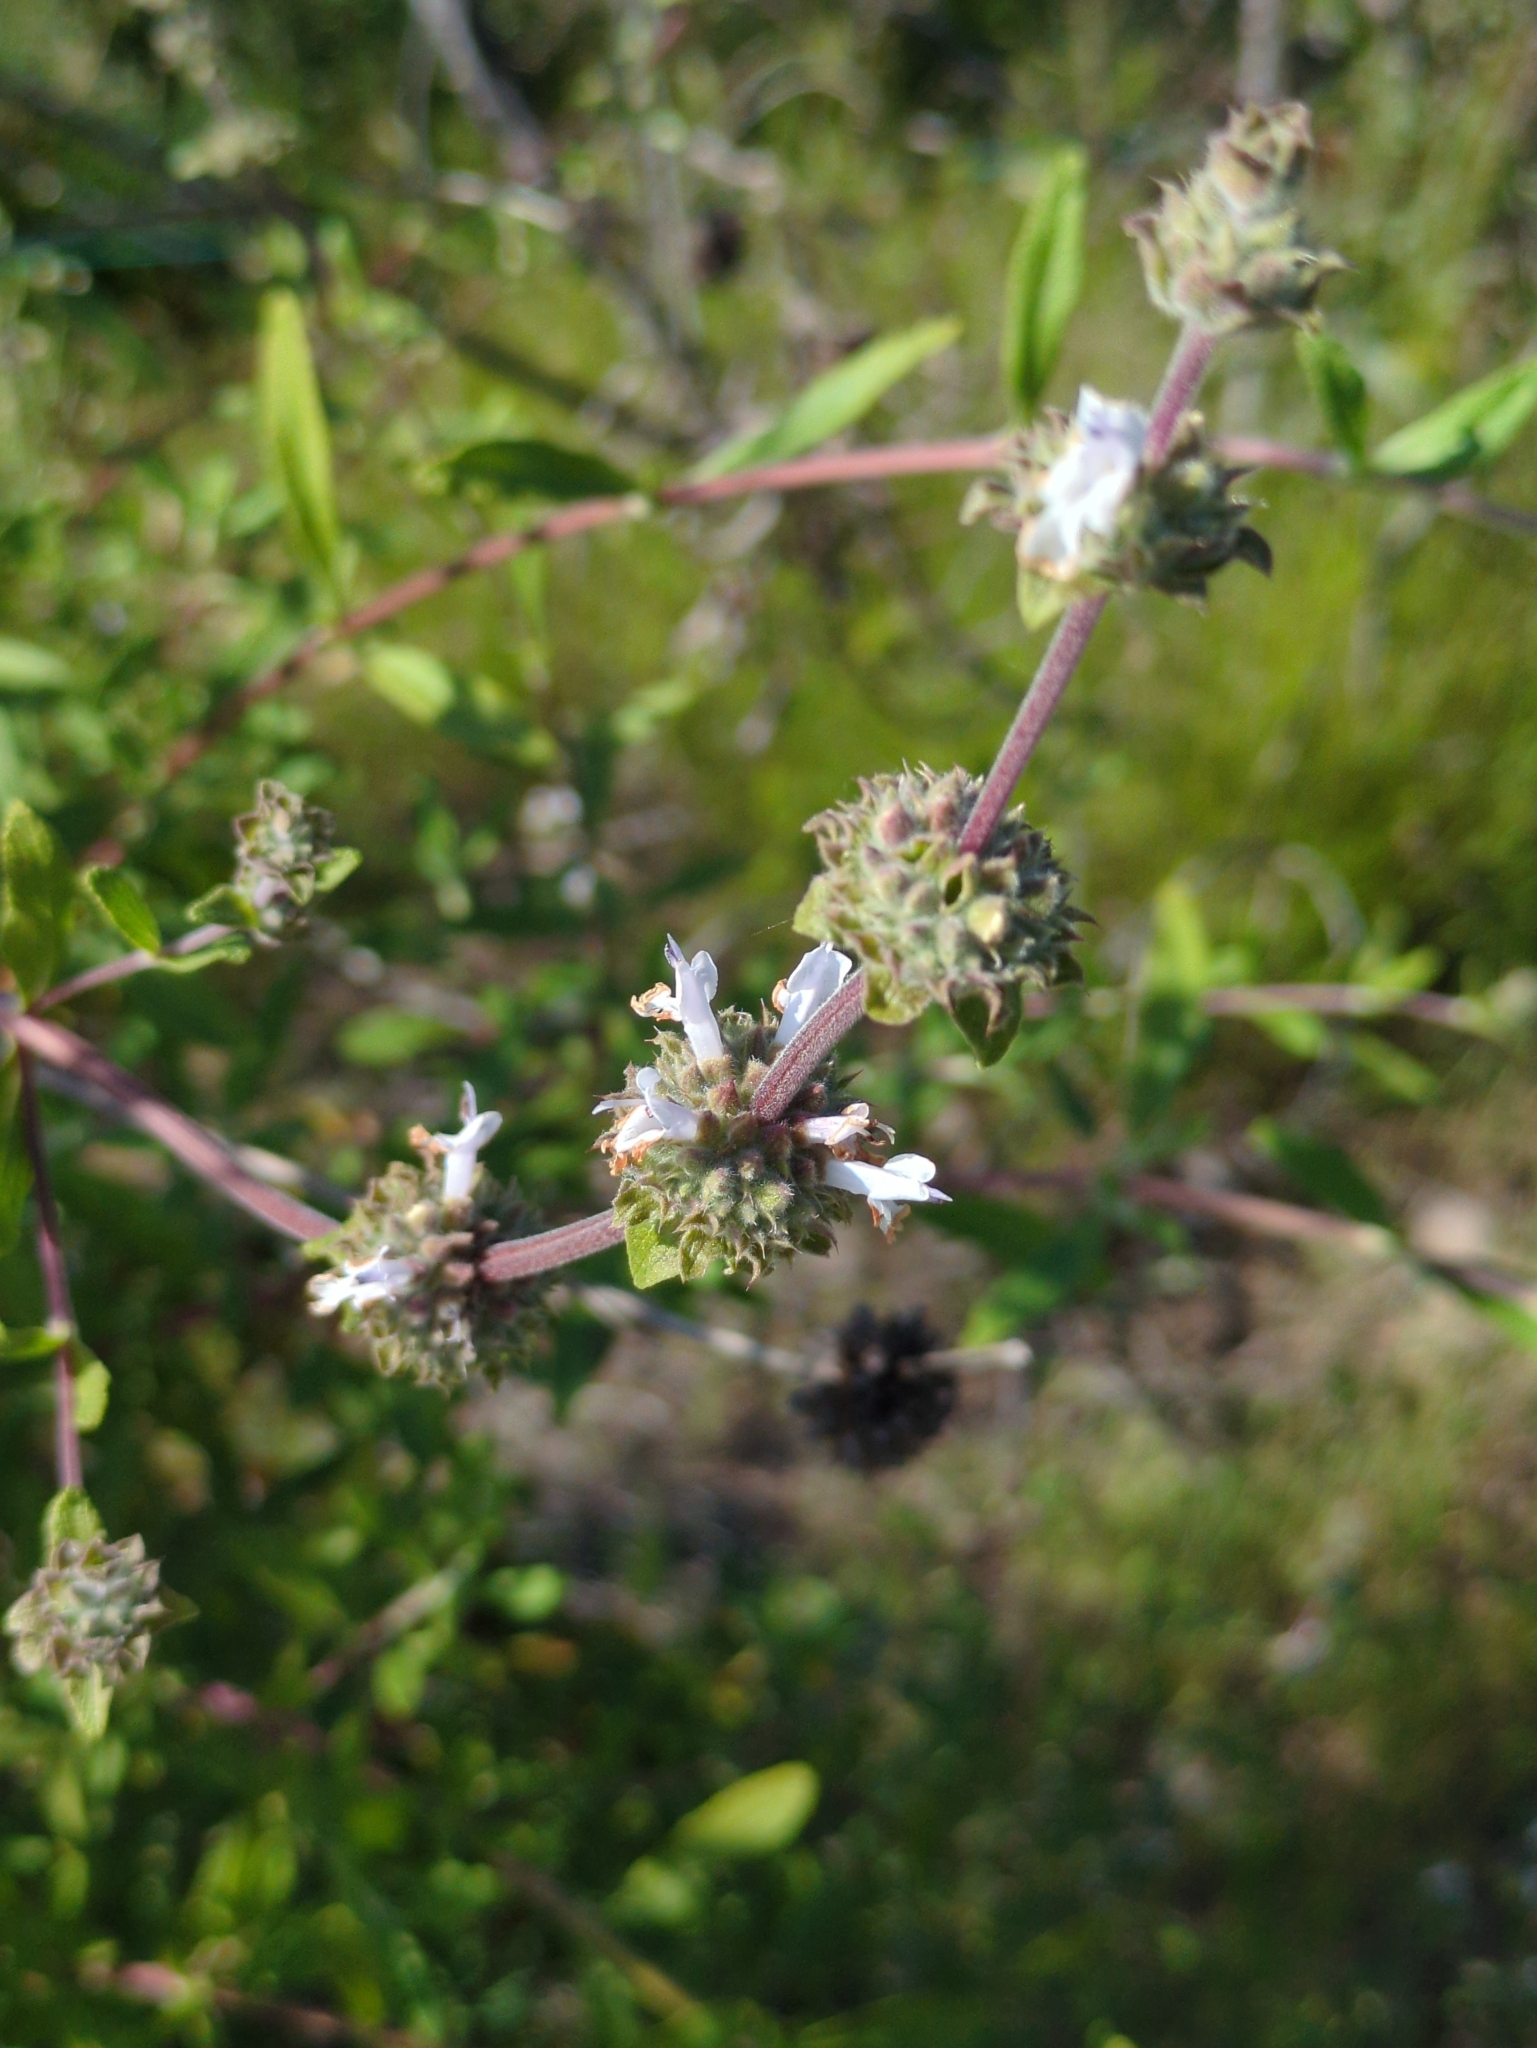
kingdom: Plantae
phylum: Tracheophyta
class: Magnoliopsida
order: Lamiales
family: Lamiaceae
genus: Salvia
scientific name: Salvia mellifera
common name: Black sage
